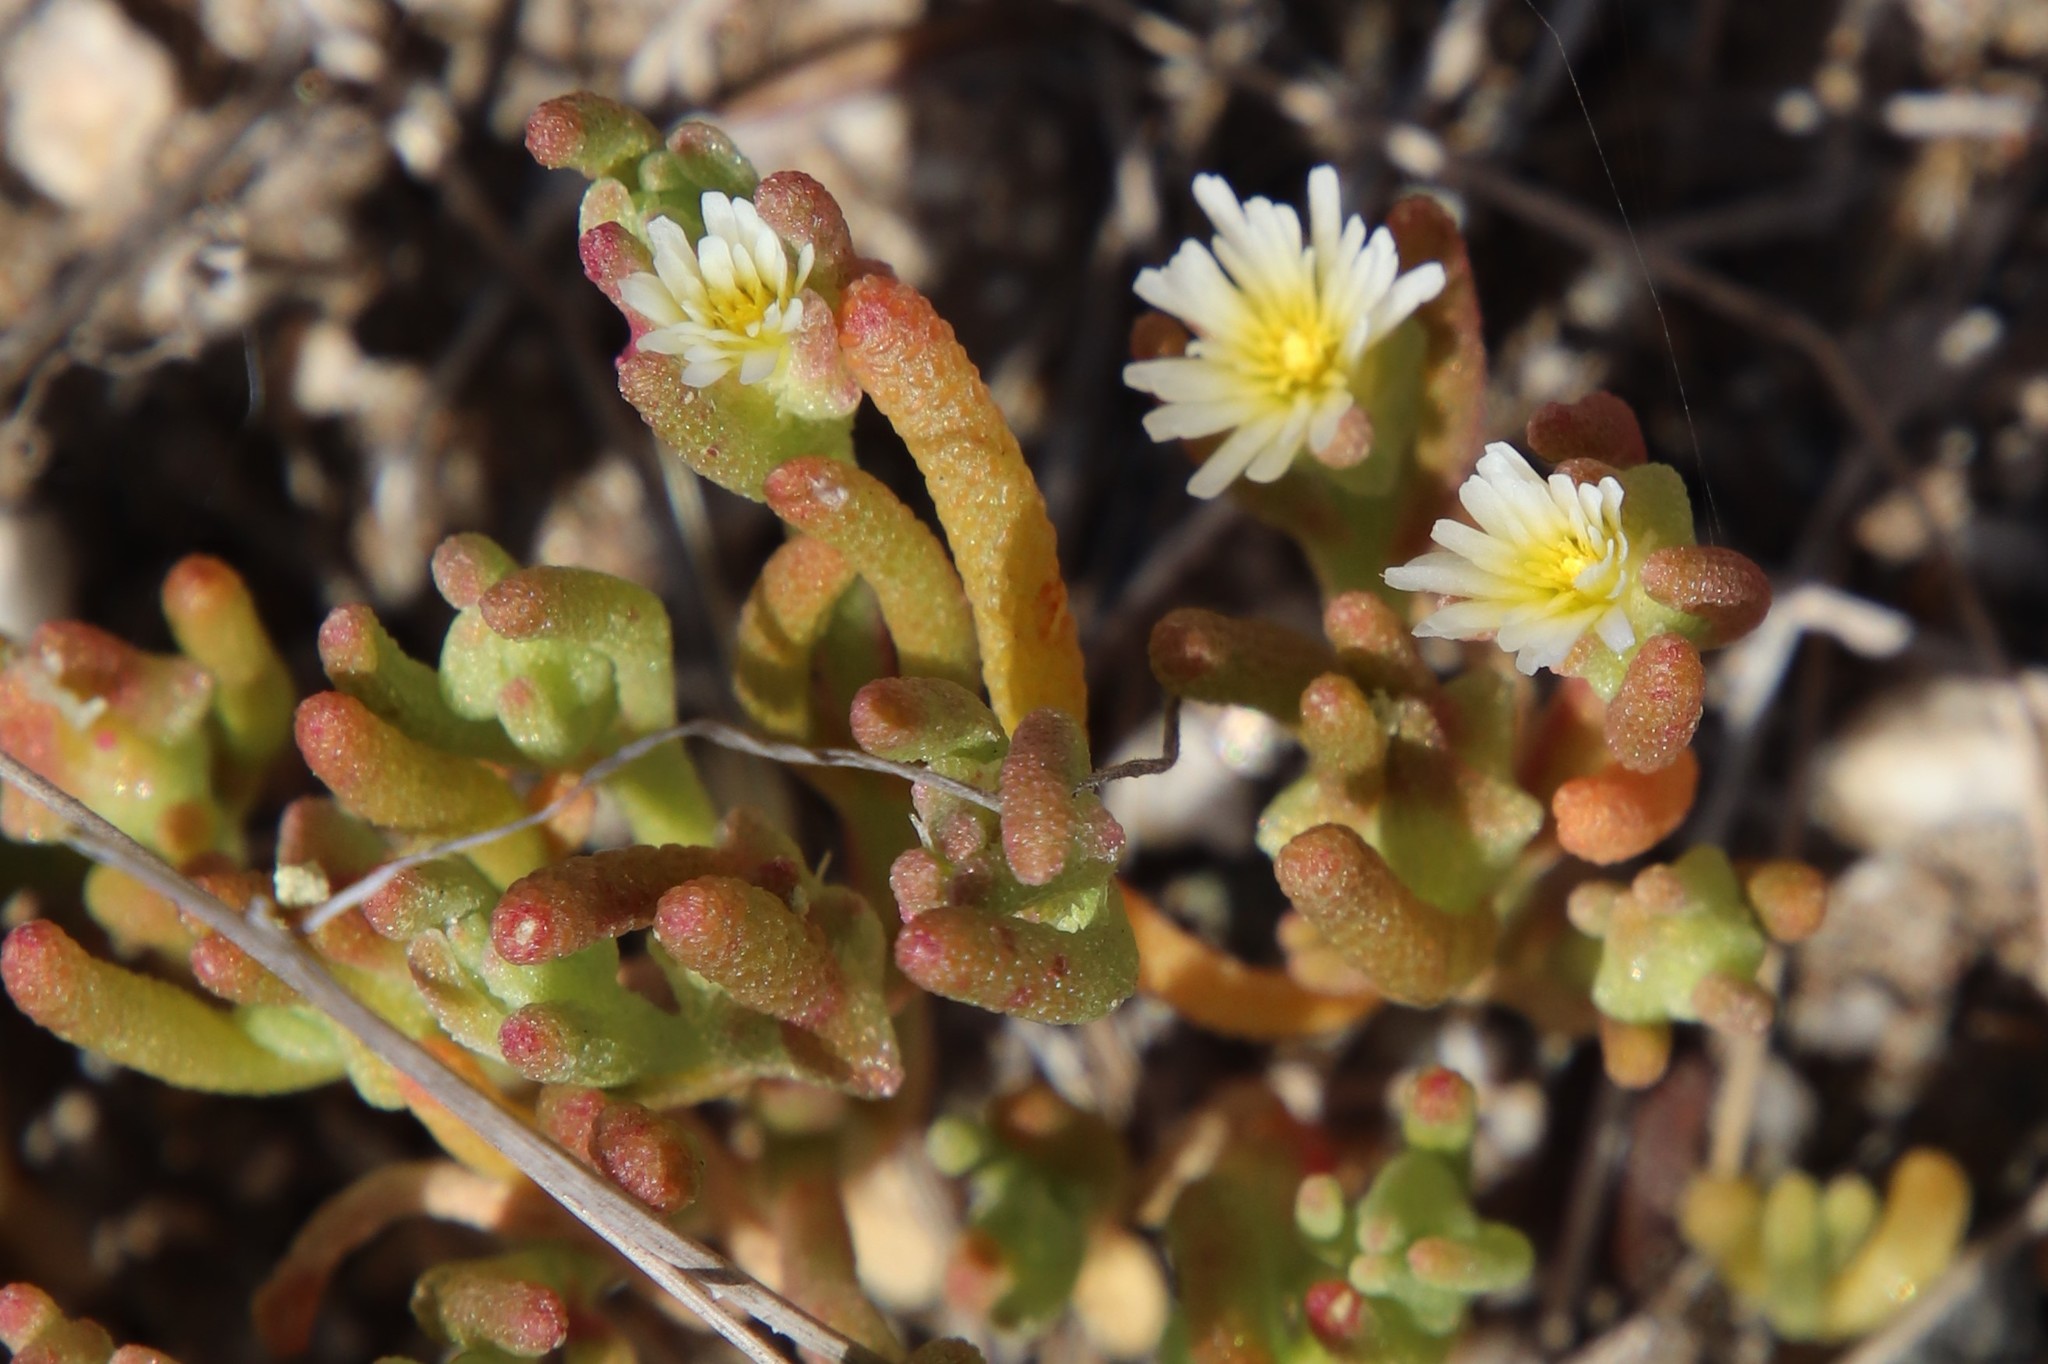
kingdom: Plantae
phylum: Tracheophyta
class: Magnoliopsida
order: Caryophyllales
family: Aizoaceae
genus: Mesembryanthemum
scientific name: Mesembryanthemum nodiflorum
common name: Slenderleaf iceplant
